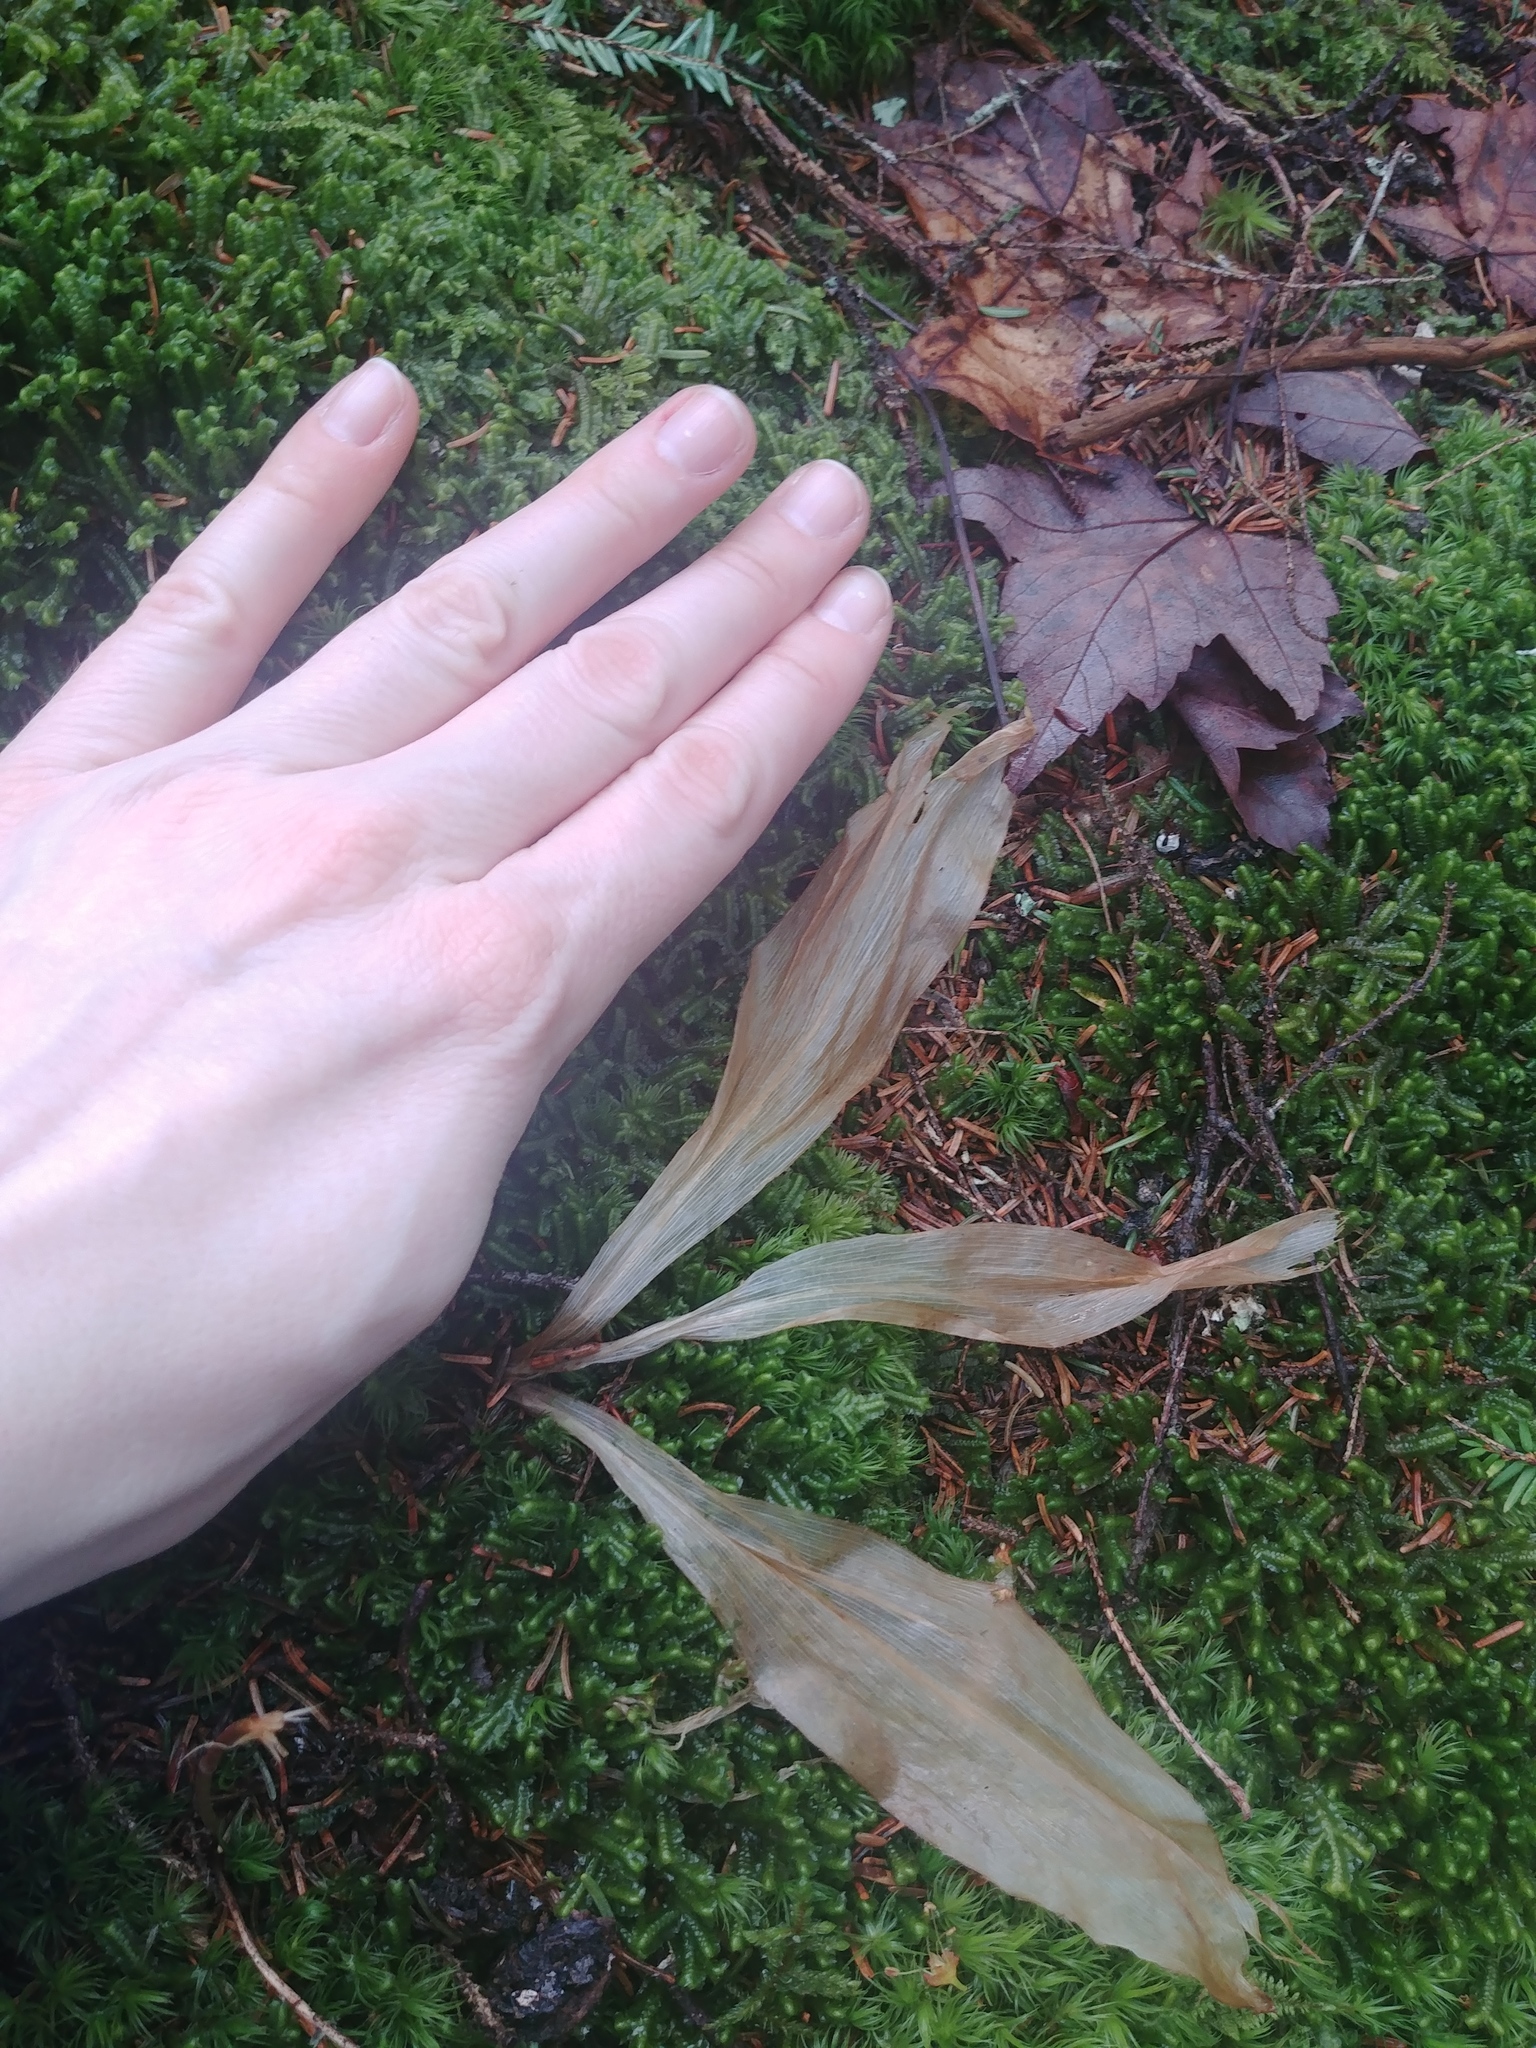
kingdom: Plantae
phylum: Tracheophyta
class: Liliopsida
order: Liliales
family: Liliaceae
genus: Clintonia
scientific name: Clintonia borealis
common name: Yellow clintonia
